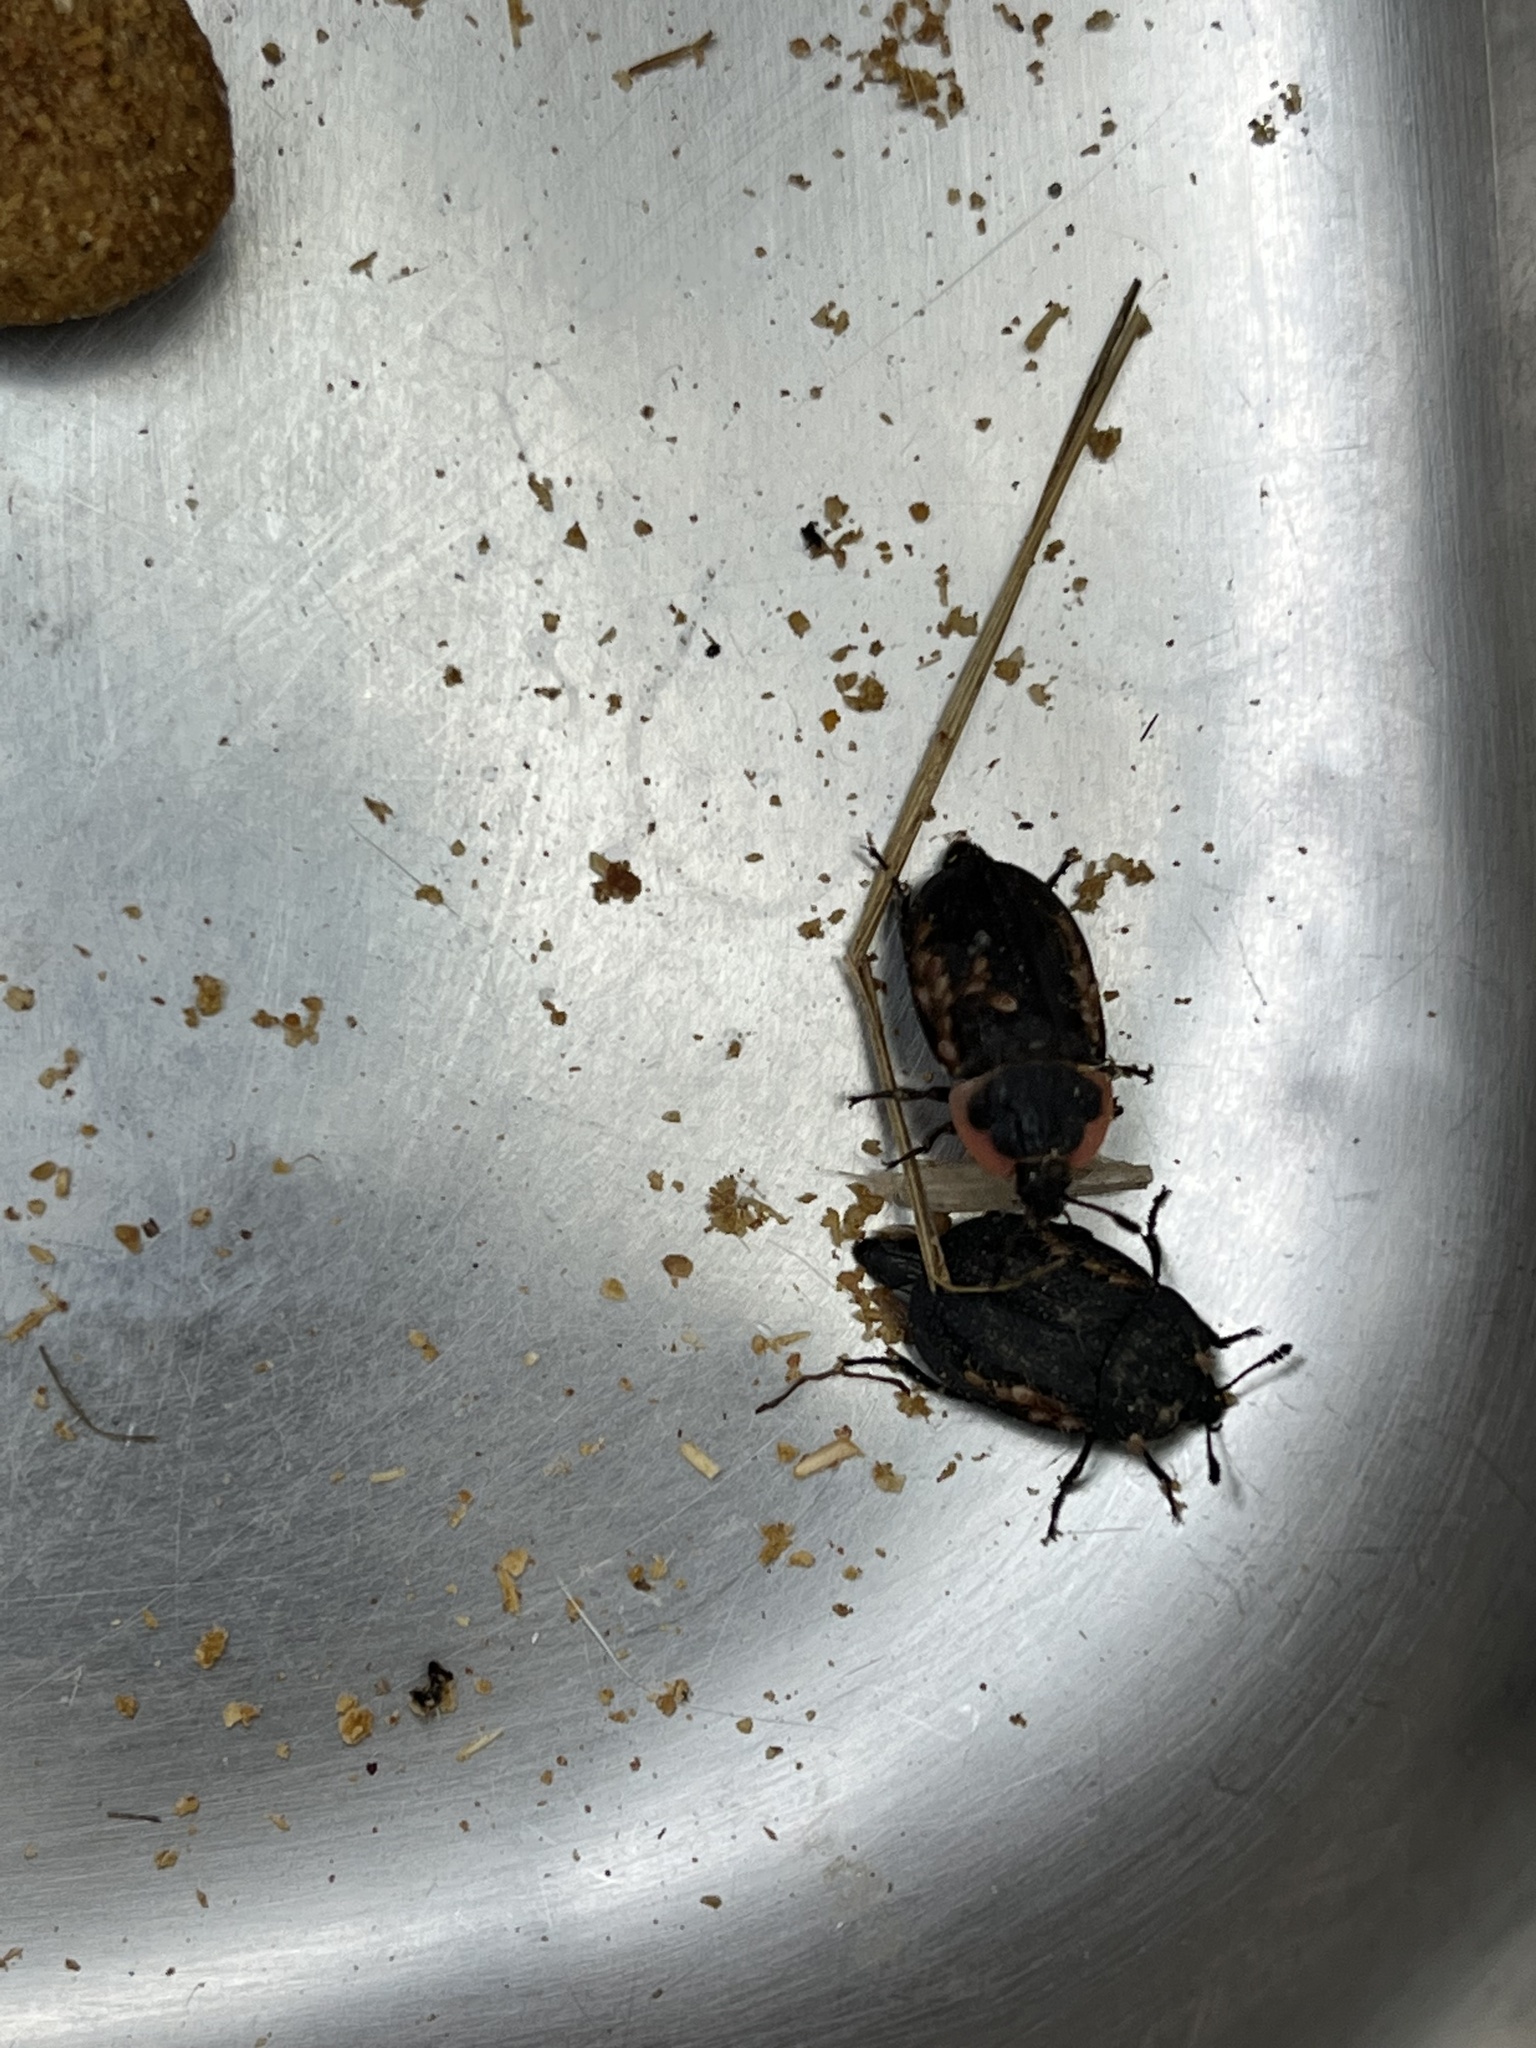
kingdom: Animalia
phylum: Arthropoda
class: Insecta
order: Coleoptera
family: Staphylinidae
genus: Oiceoptoma
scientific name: Oiceoptoma noveboracense
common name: Margined carrion beetle
